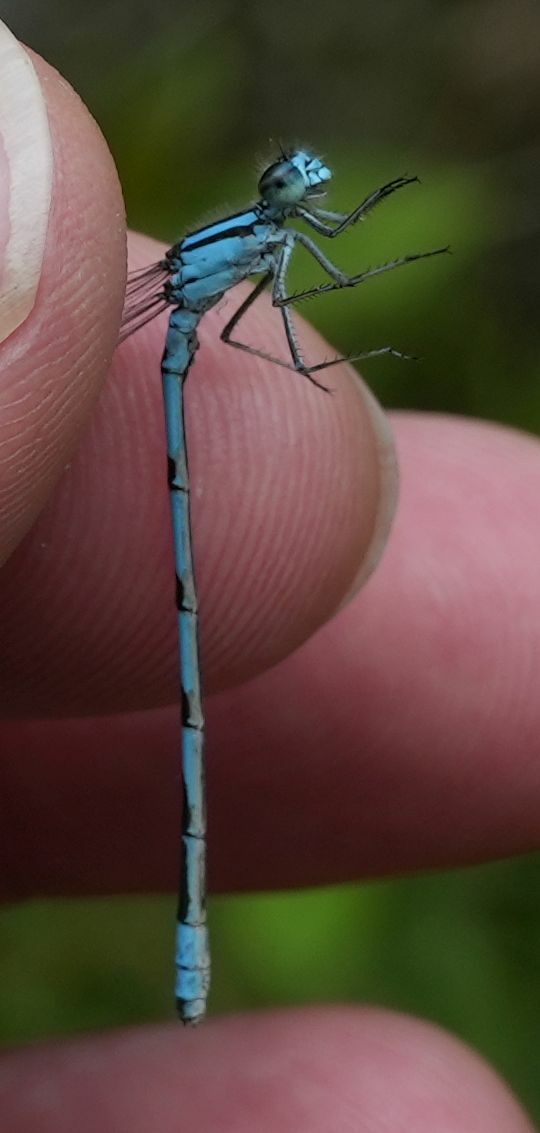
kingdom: Animalia
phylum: Arthropoda
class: Insecta
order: Odonata
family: Coenagrionidae
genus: Enallagma
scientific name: Enallagma hageni
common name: Hagen's bluet
